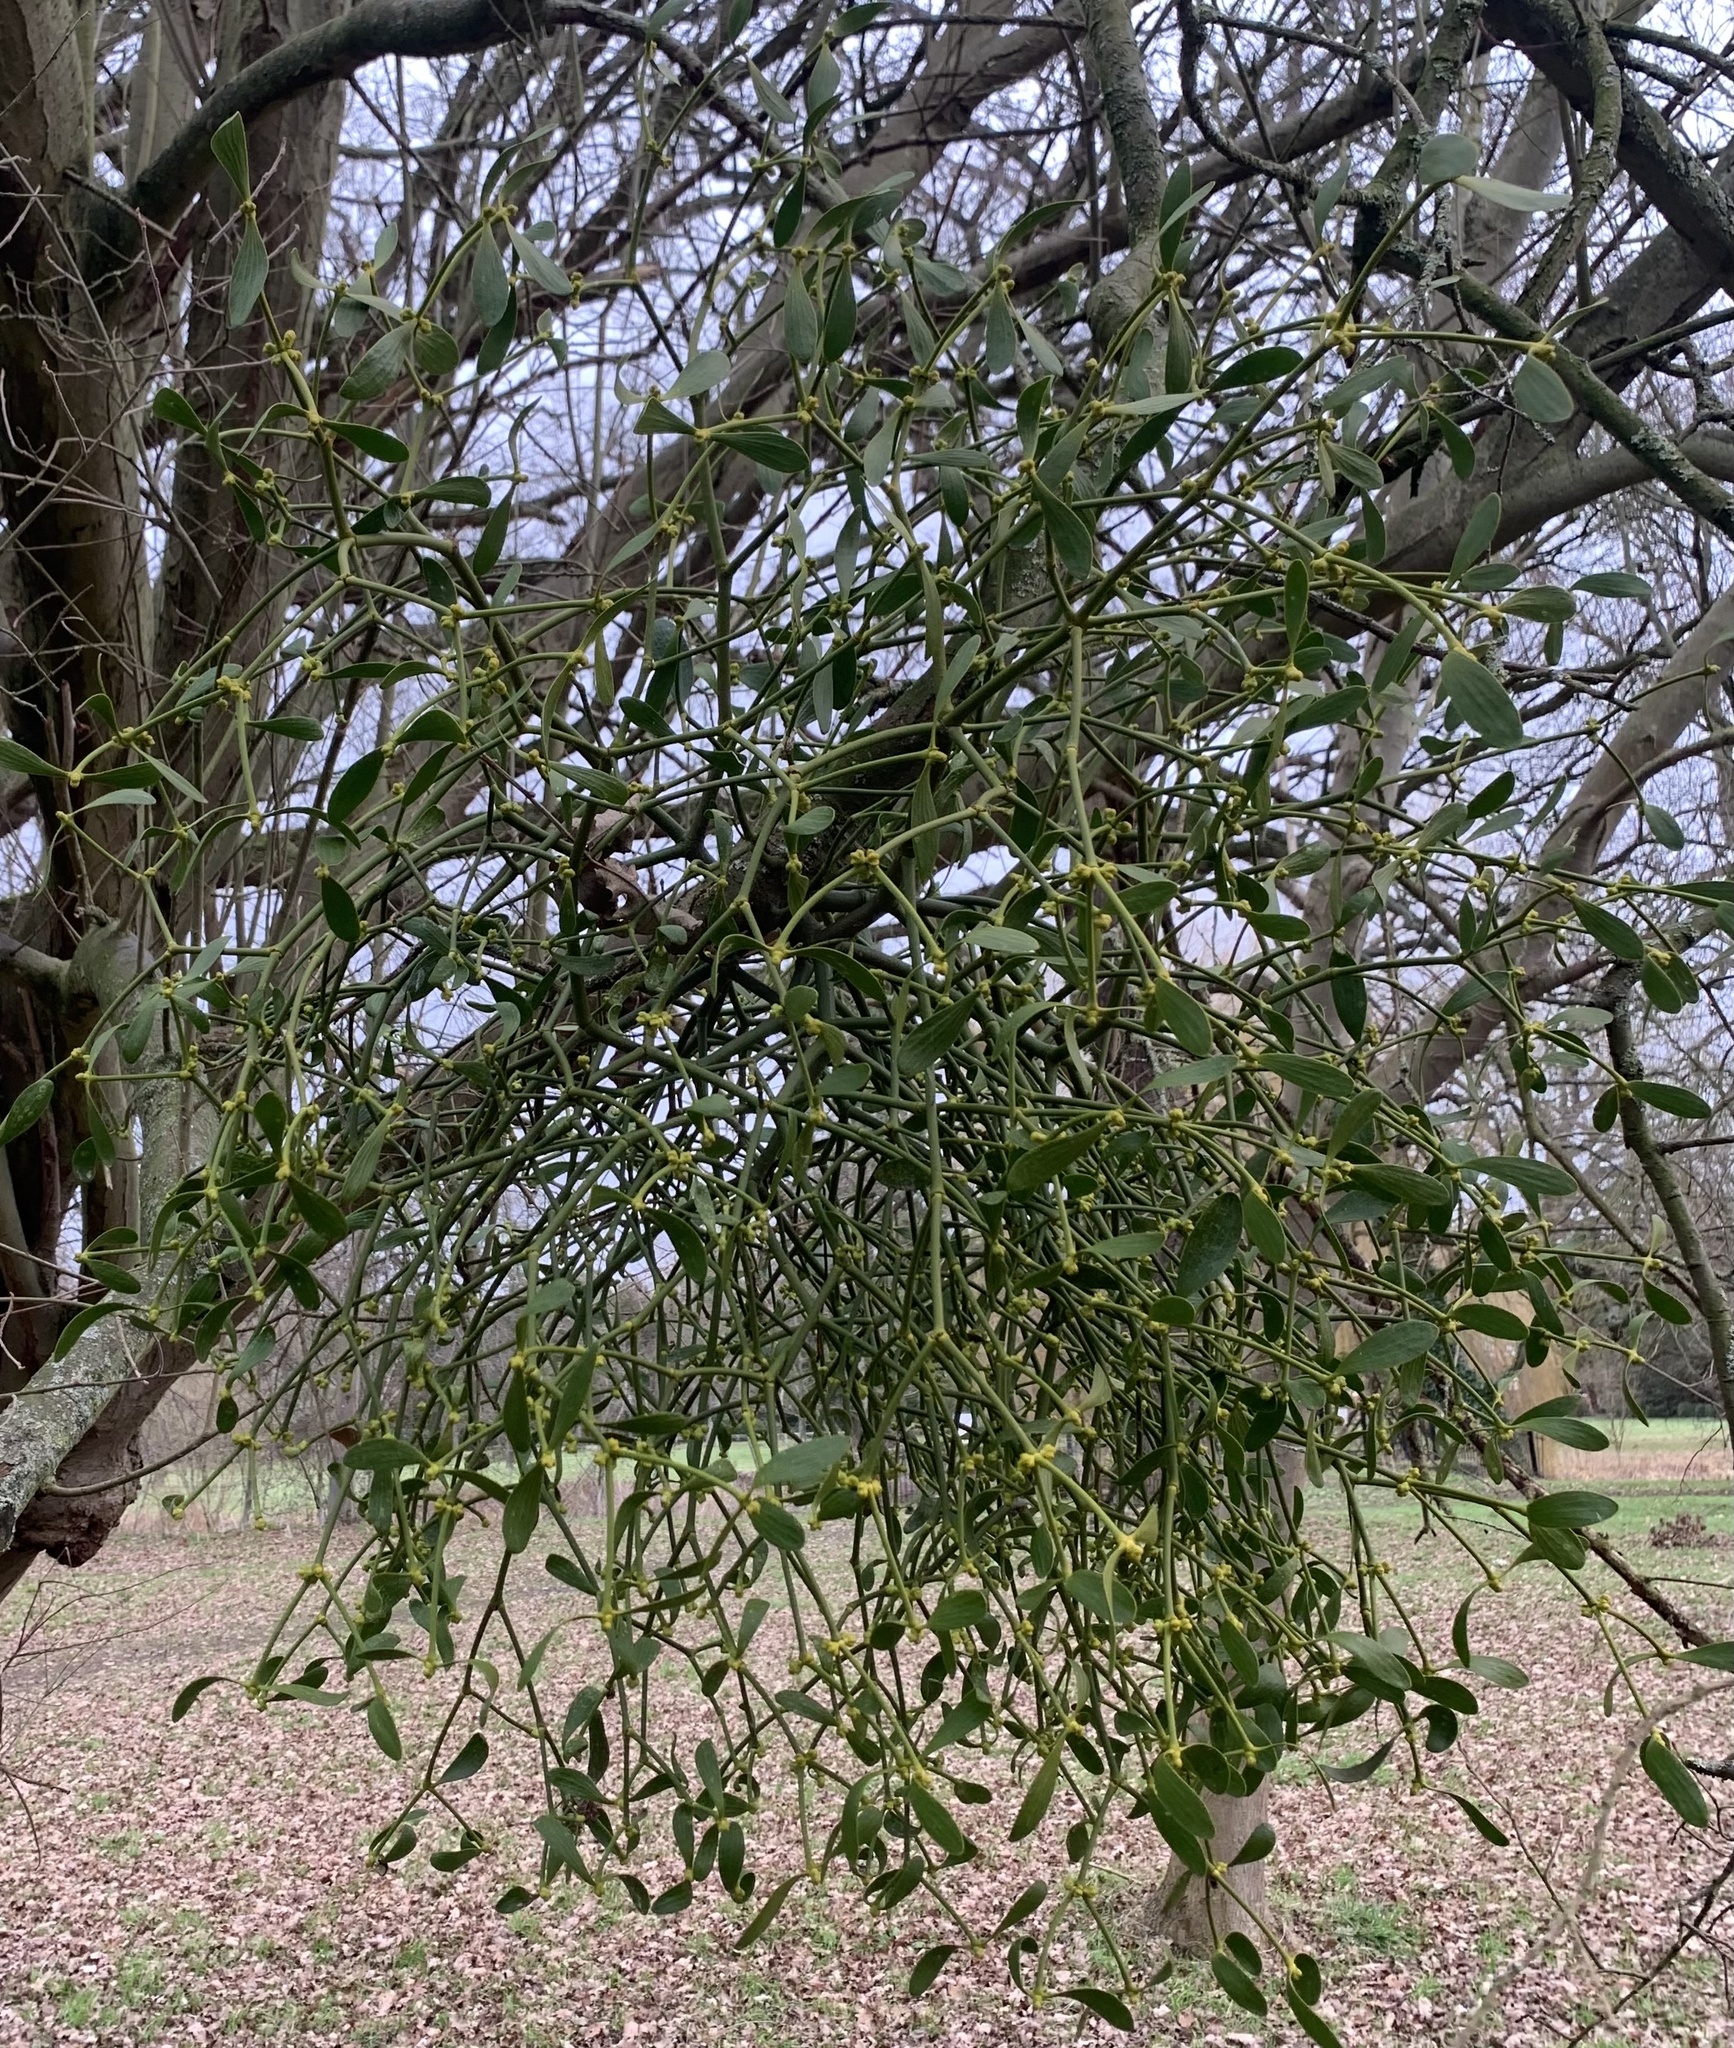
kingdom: Plantae
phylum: Tracheophyta
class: Magnoliopsida
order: Santalales
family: Viscaceae
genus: Viscum
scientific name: Viscum album
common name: Mistletoe
